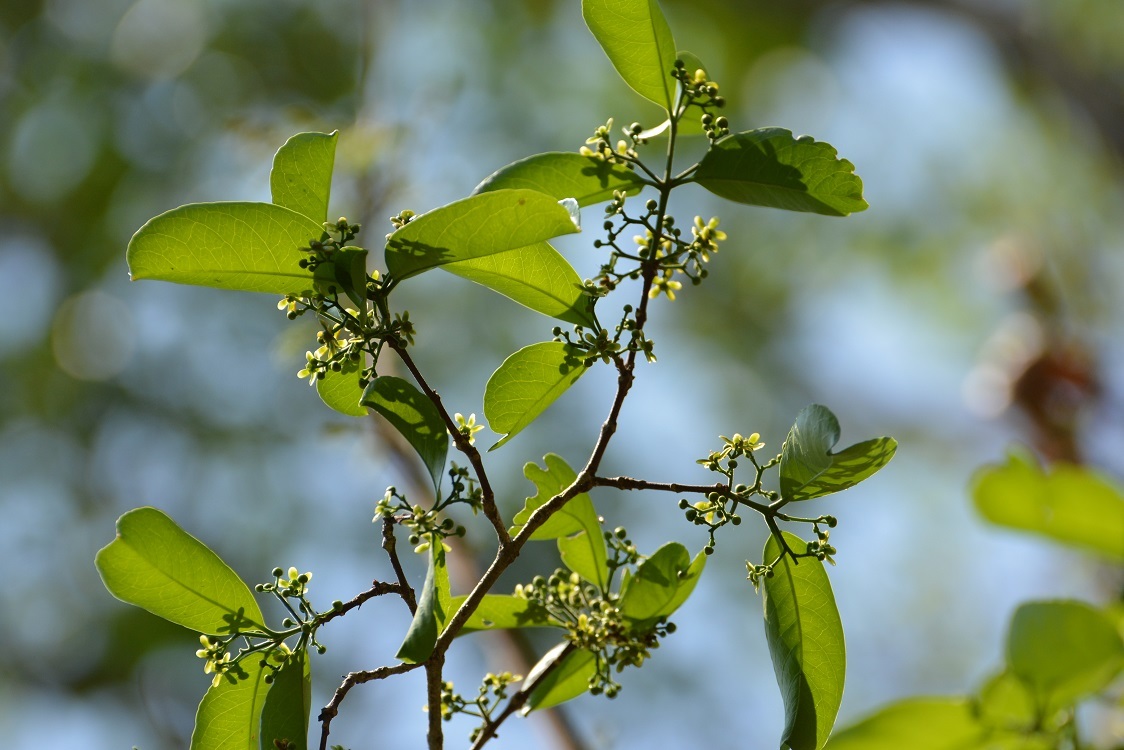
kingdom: Plantae
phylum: Tracheophyta
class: Magnoliopsida
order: Celastrales
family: Celastraceae
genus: Semialarium
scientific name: Semialarium mexicanum
